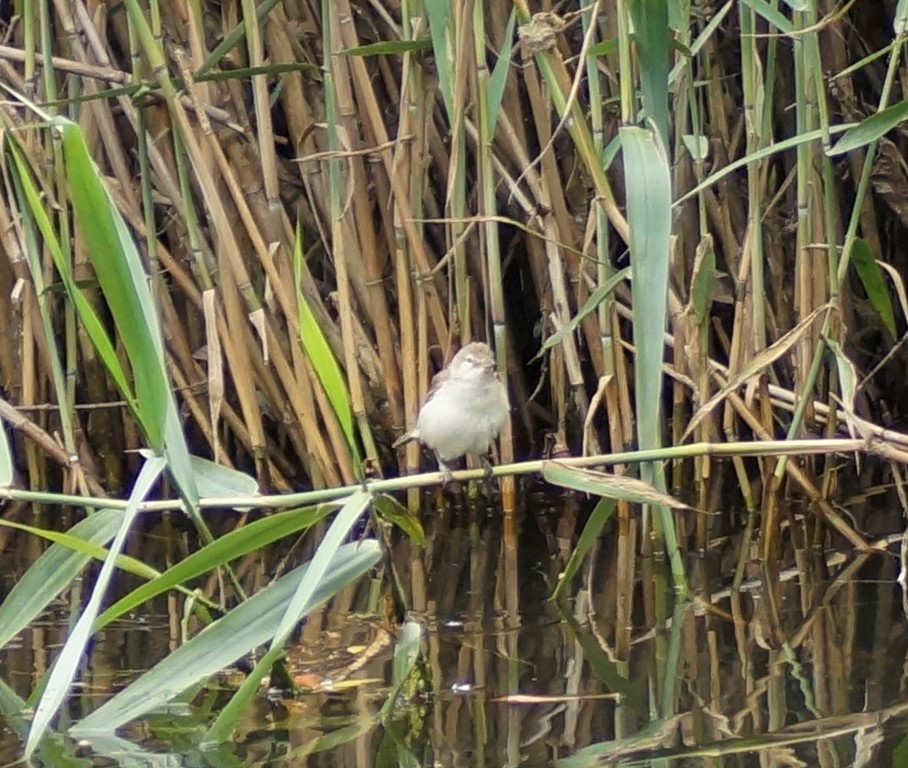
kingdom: Animalia
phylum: Chordata
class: Aves
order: Passeriformes
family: Acrocephalidae
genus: Acrocephalus
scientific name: Acrocephalus australis
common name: Australian reed warbler
